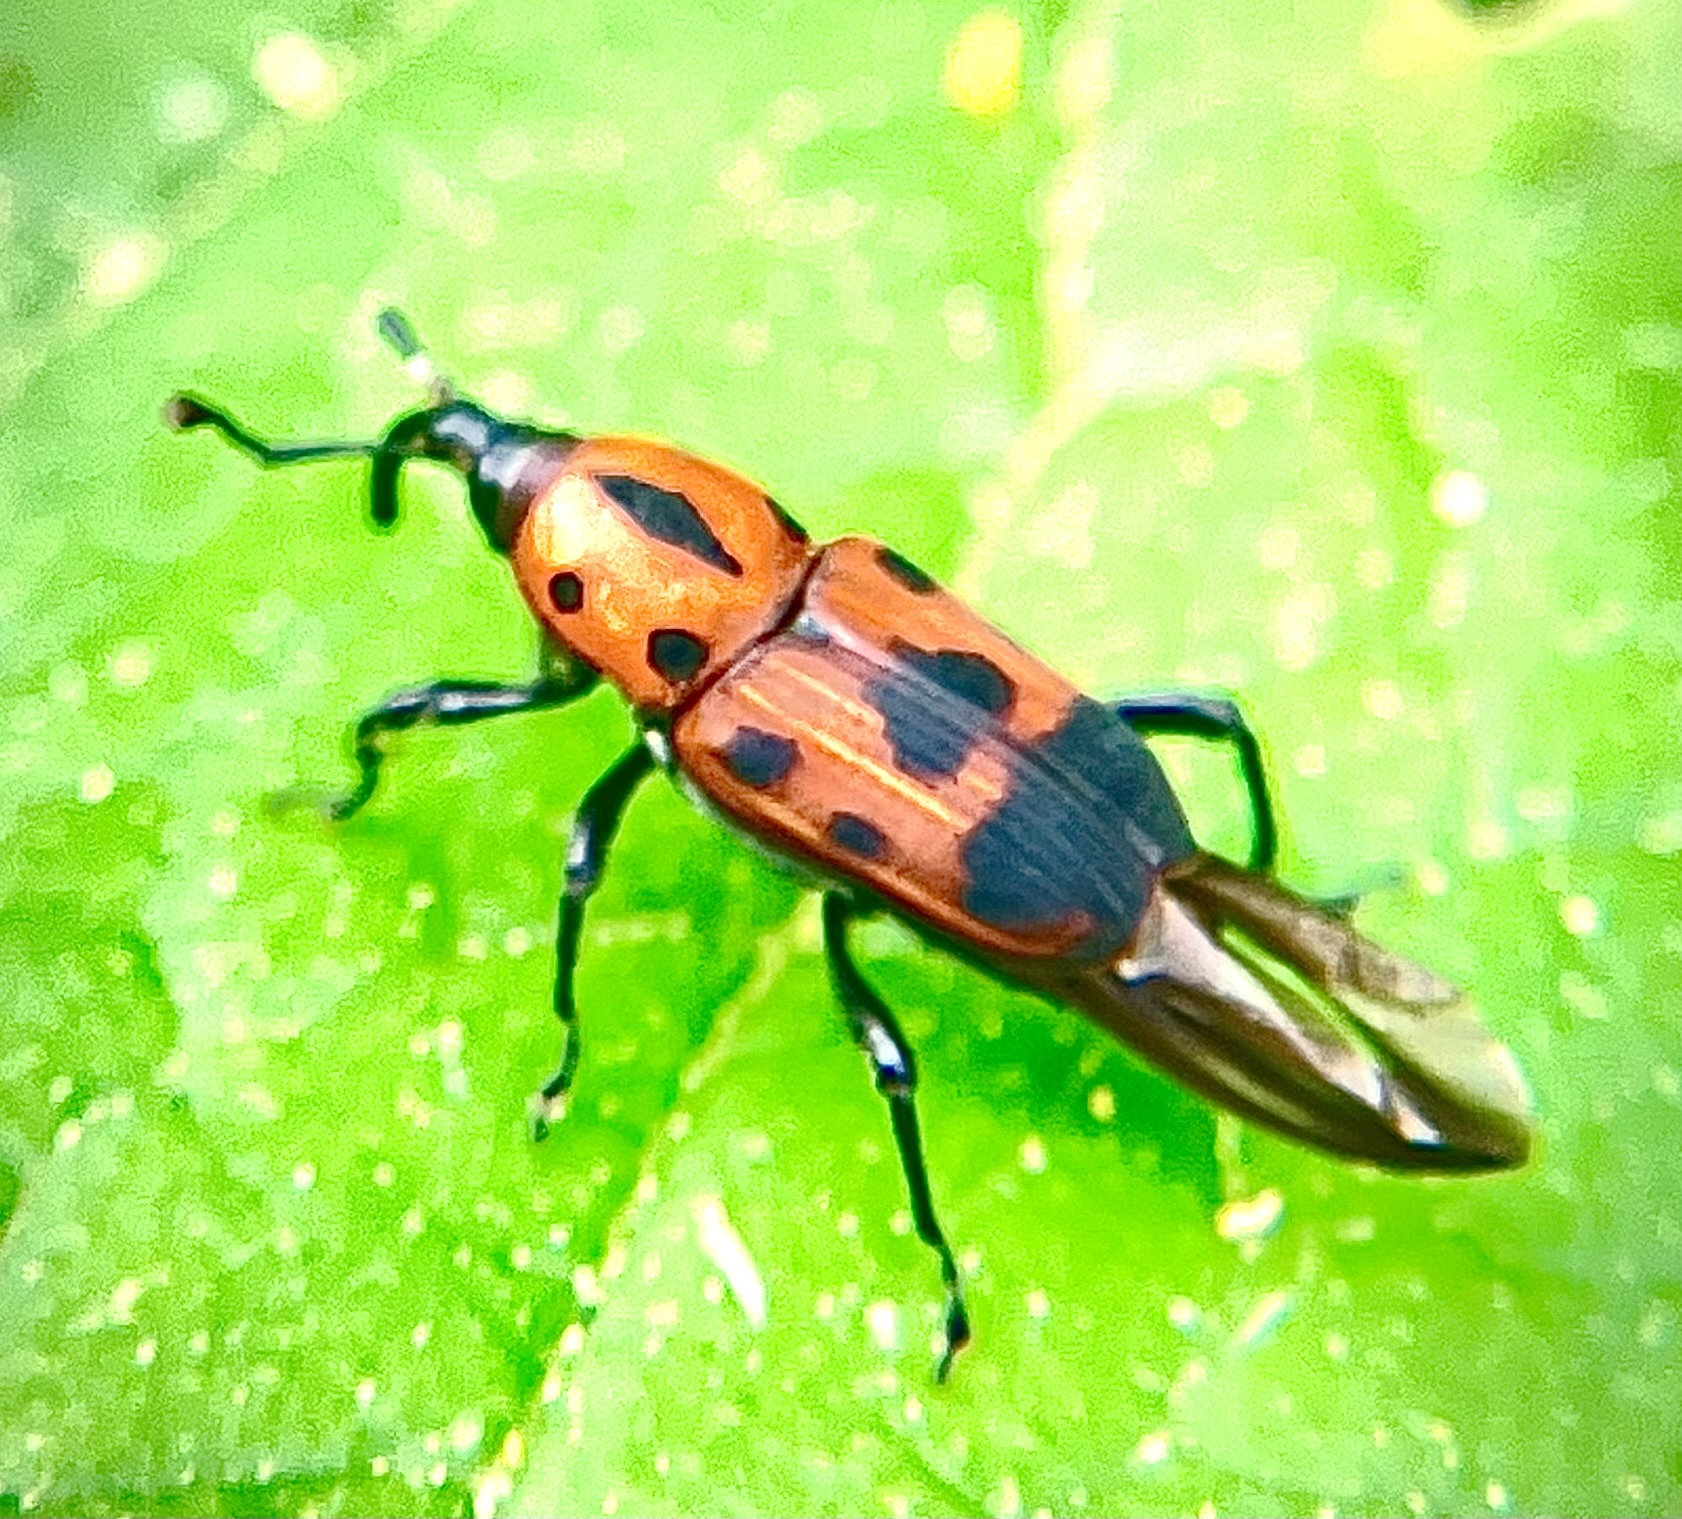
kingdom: Animalia
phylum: Arthropoda
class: Insecta
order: Coleoptera
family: Dryophthoridae
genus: Rhodobaenus
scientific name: Rhodobaenus quinquepunctatus
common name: Cocklebur weevil
